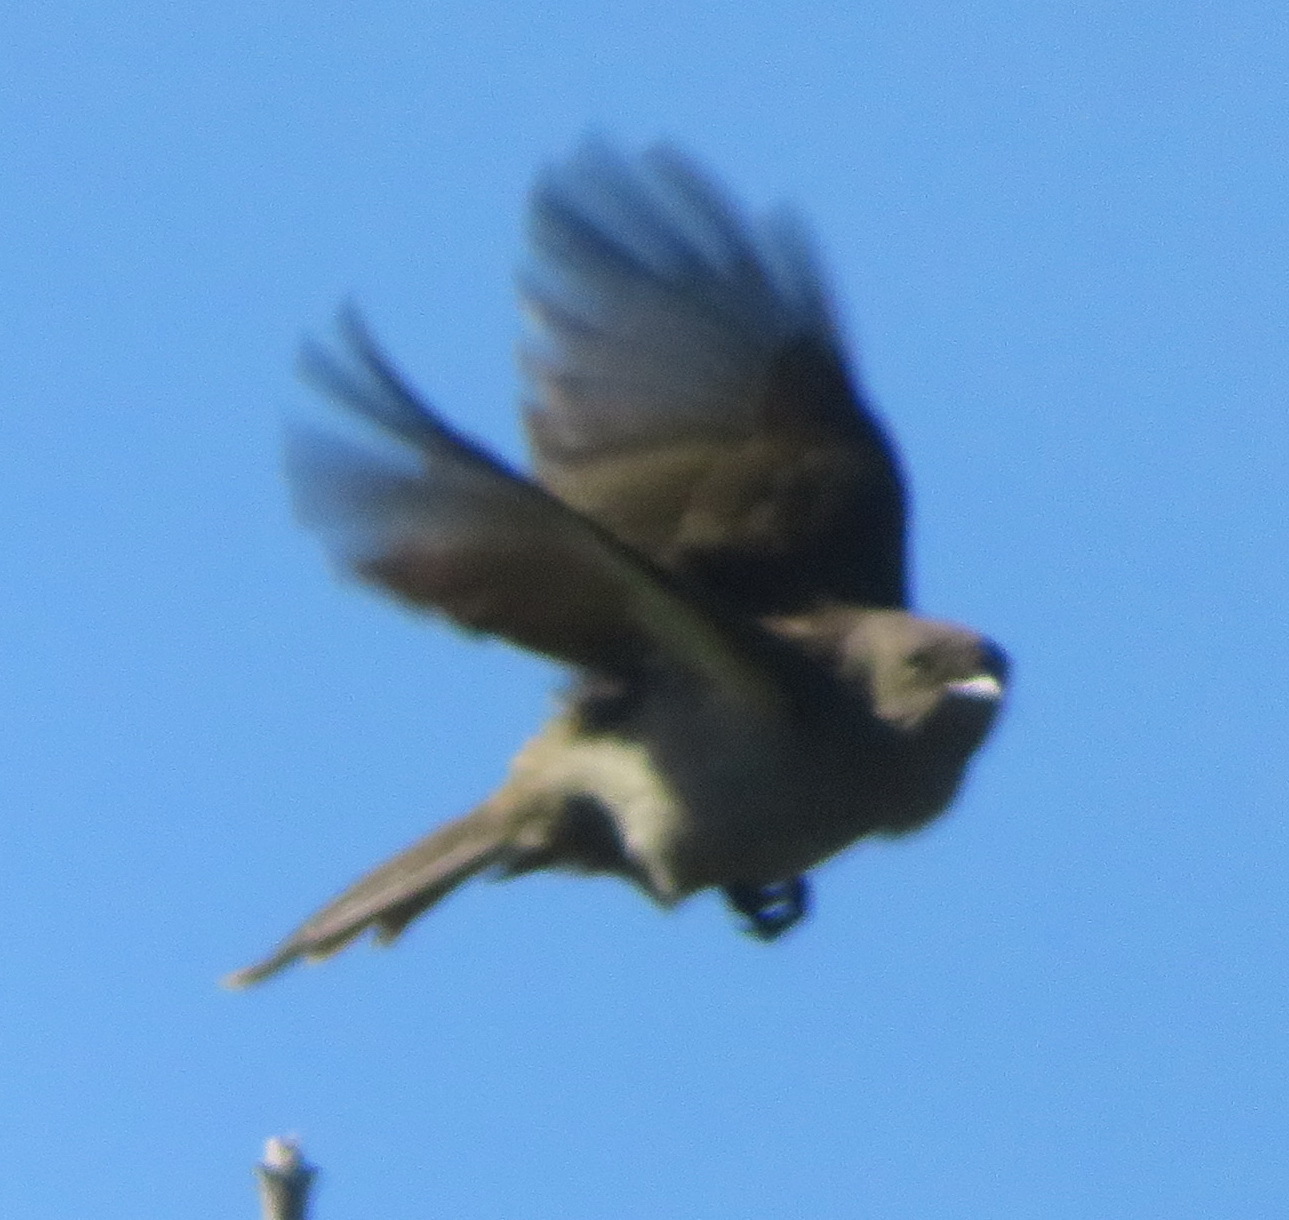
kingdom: Animalia
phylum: Chordata
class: Aves
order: Passeriformes
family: Pycnonotidae
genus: Andropadus
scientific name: Andropadus importunus
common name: Sombre greenbul
